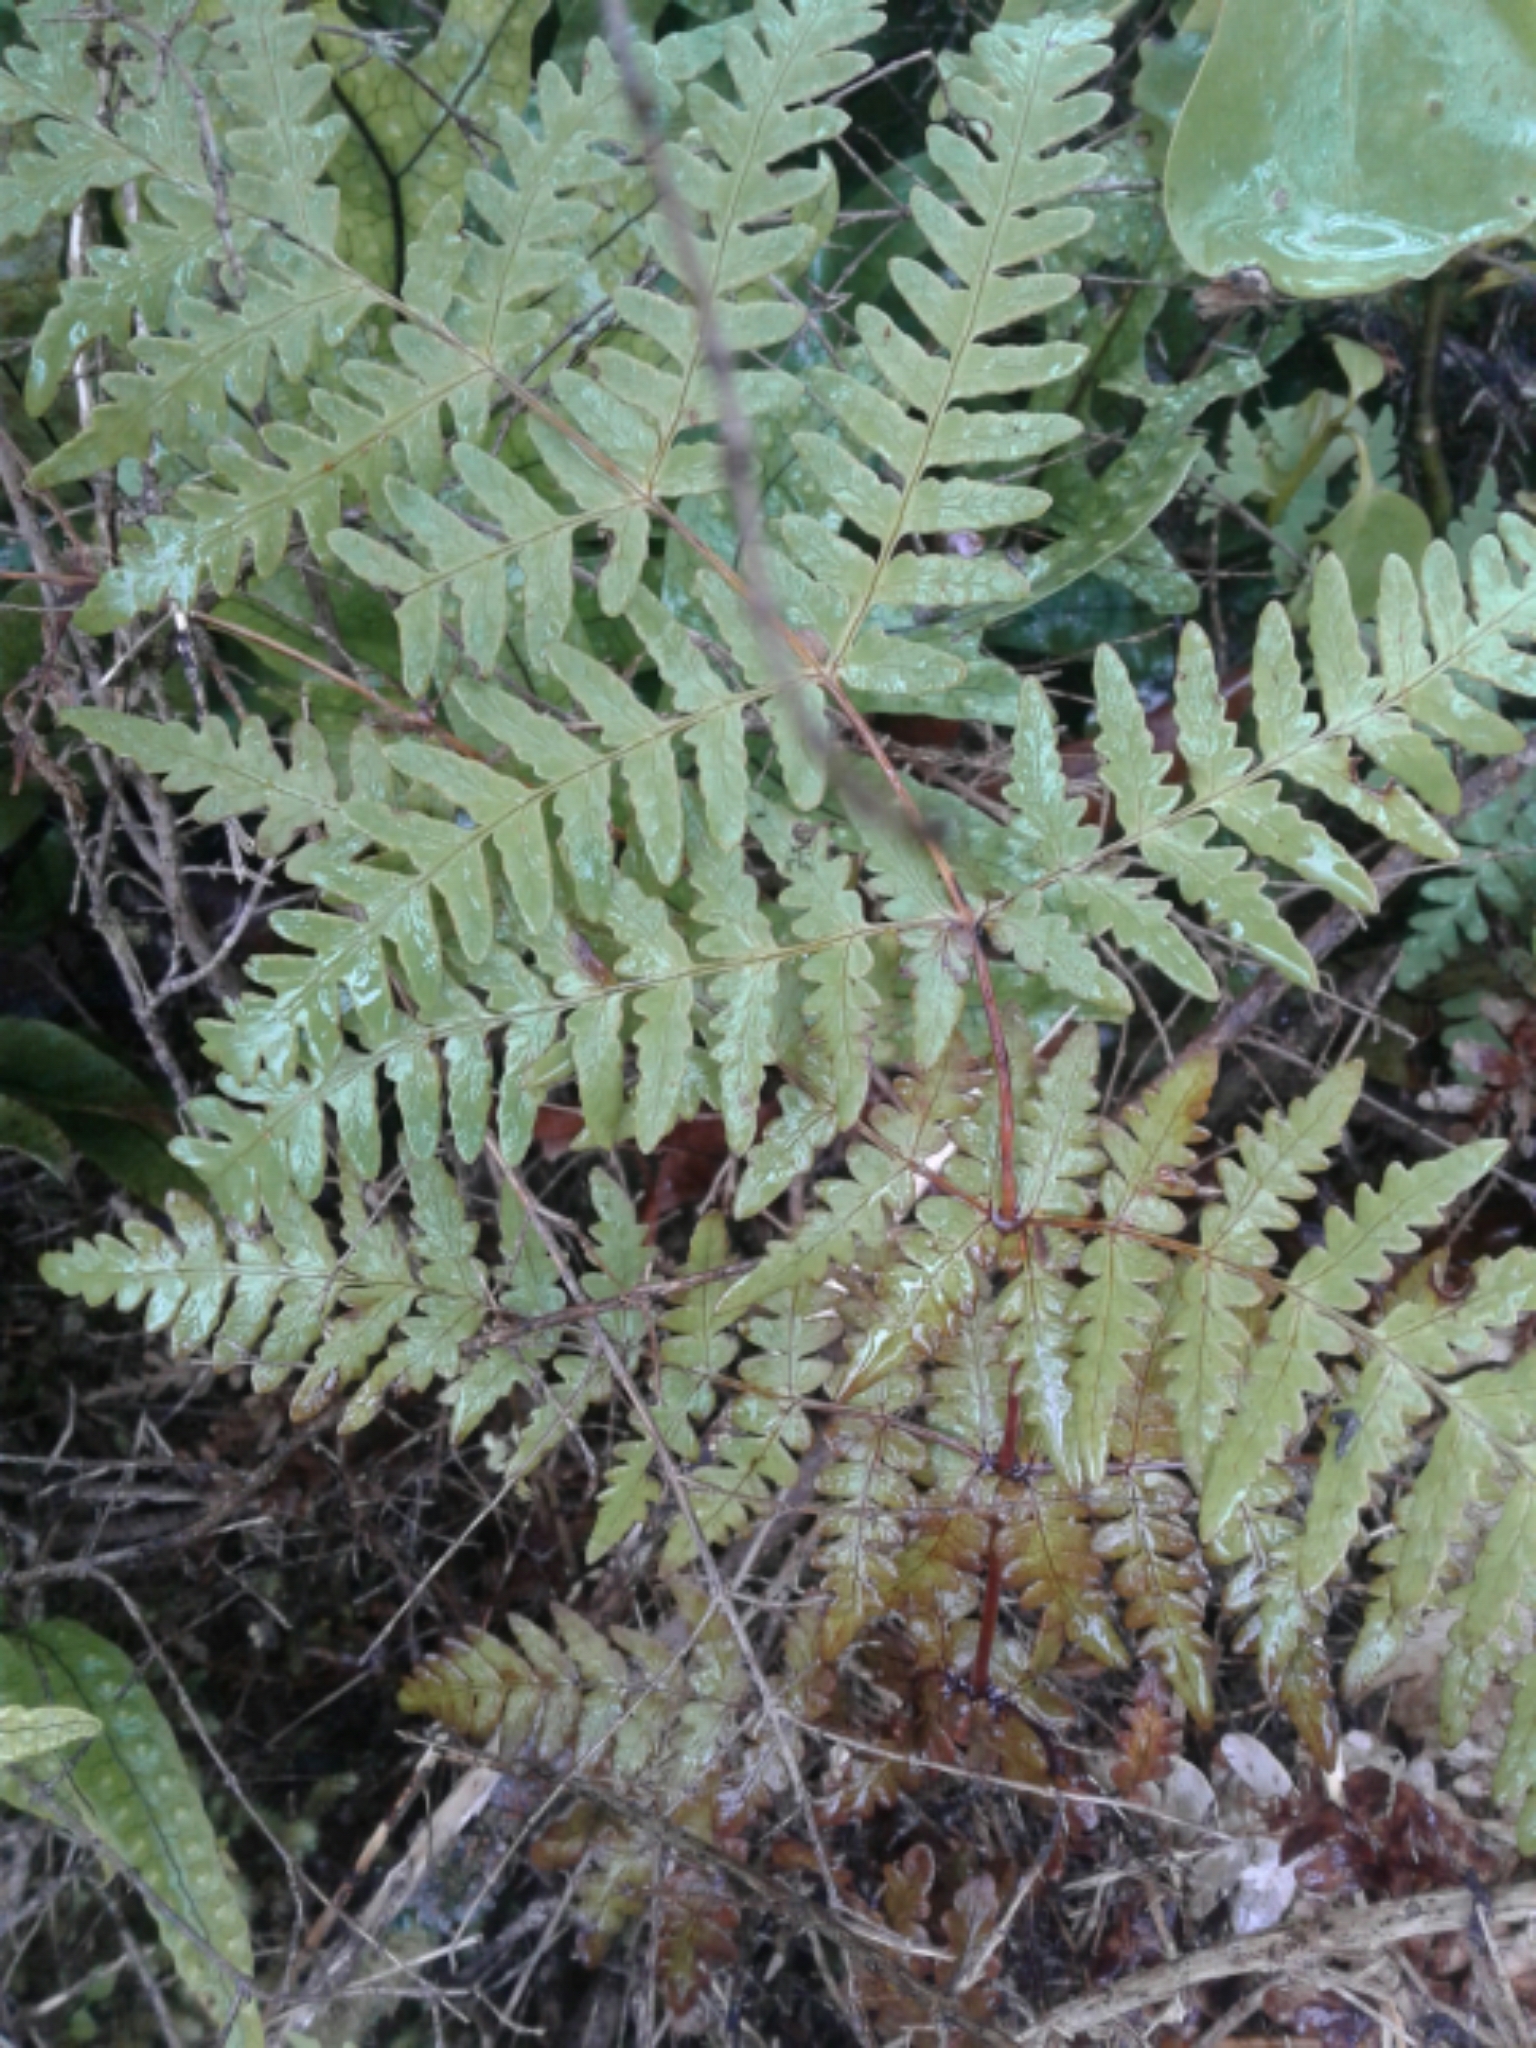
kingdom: Plantae
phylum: Tracheophyta
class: Polypodiopsida
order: Polypodiales
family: Dennstaedtiaceae
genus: Histiopteris
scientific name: Histiopteris incisa
